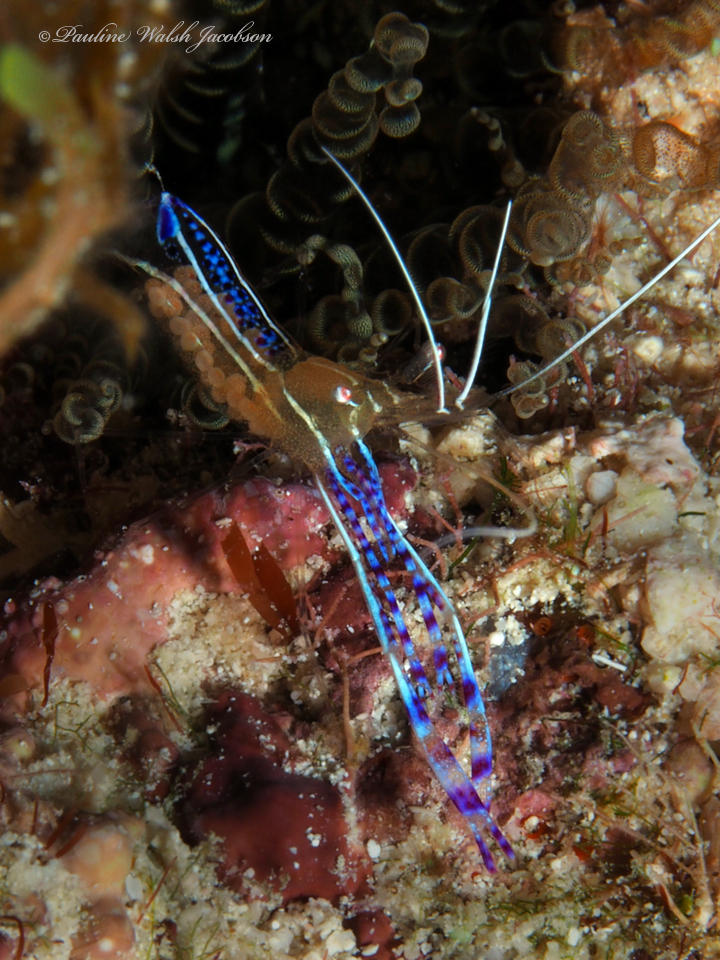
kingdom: Animalia
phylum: Arthropoda
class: Malacostraca
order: Decapoda
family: Palaemonidae
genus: Ancylomenes
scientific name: Ancylomenes pedersoni
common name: Pederson's cleaning shrimp
